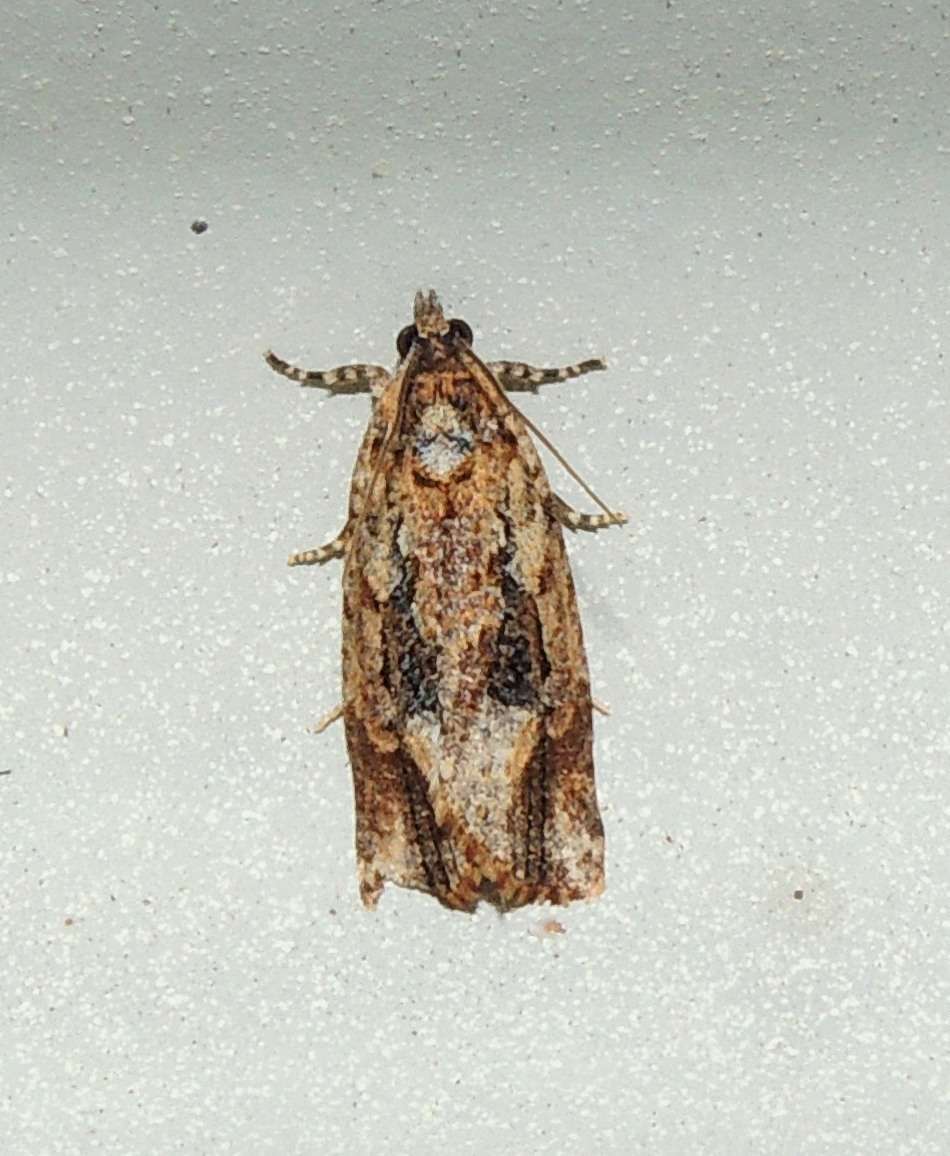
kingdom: Animalia
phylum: Arthropoda
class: Insecta
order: Lepidoptera
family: Tortricidae
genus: Thrincophora
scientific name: Thrincophora lignigerana
